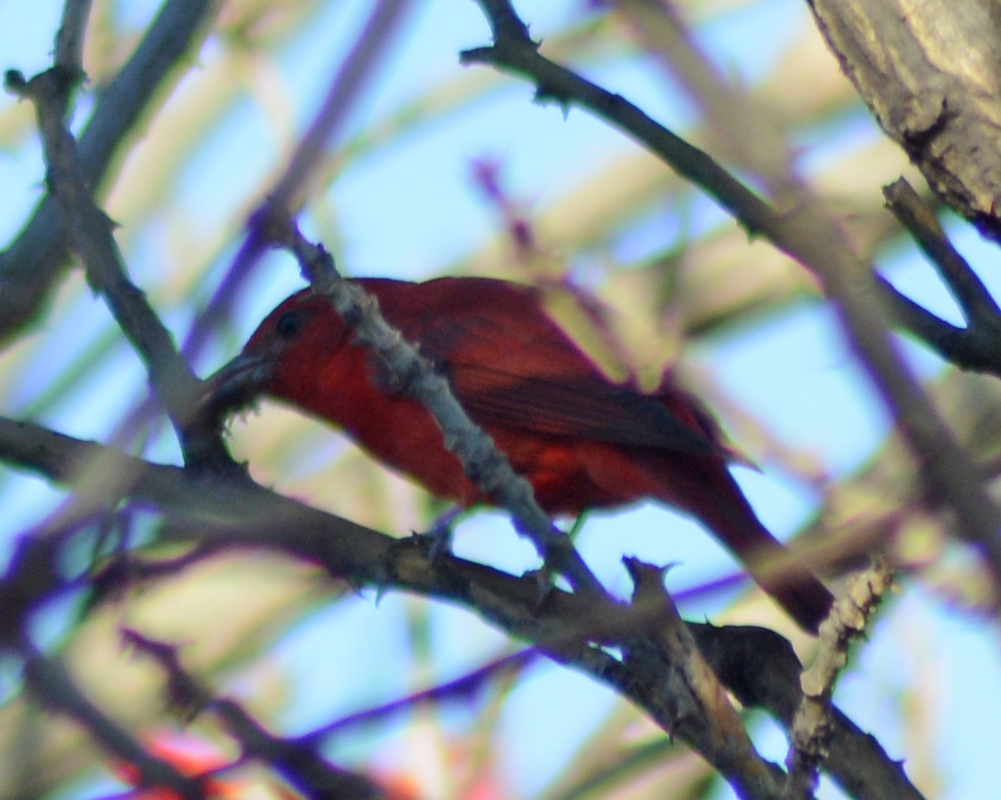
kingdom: Animalia
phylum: Chordata
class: Aves
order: Passeriformes
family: Cardinalidae
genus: Piranga
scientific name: Piranga rubra
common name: Summer tanager
